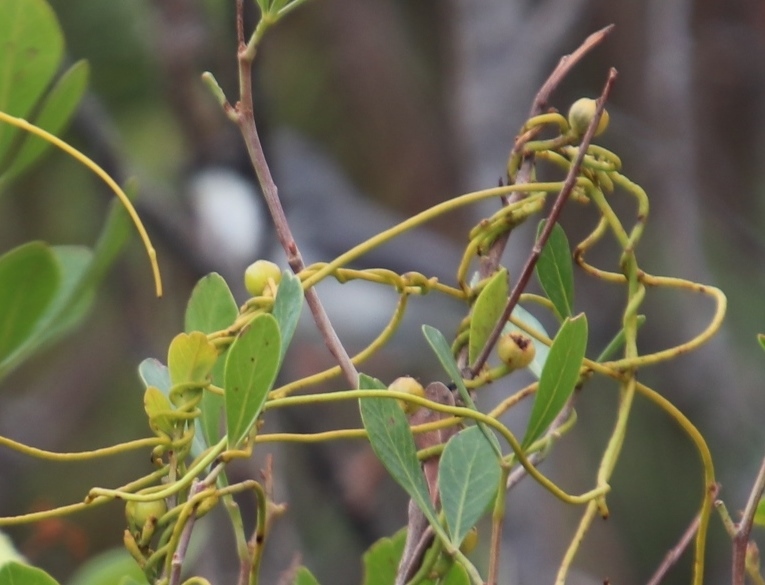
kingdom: Plantae
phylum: Tracheophyta
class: Magnoliopsida
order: Laurales
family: Lauraceae
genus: Cassytha
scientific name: Cassytha ciliolata
